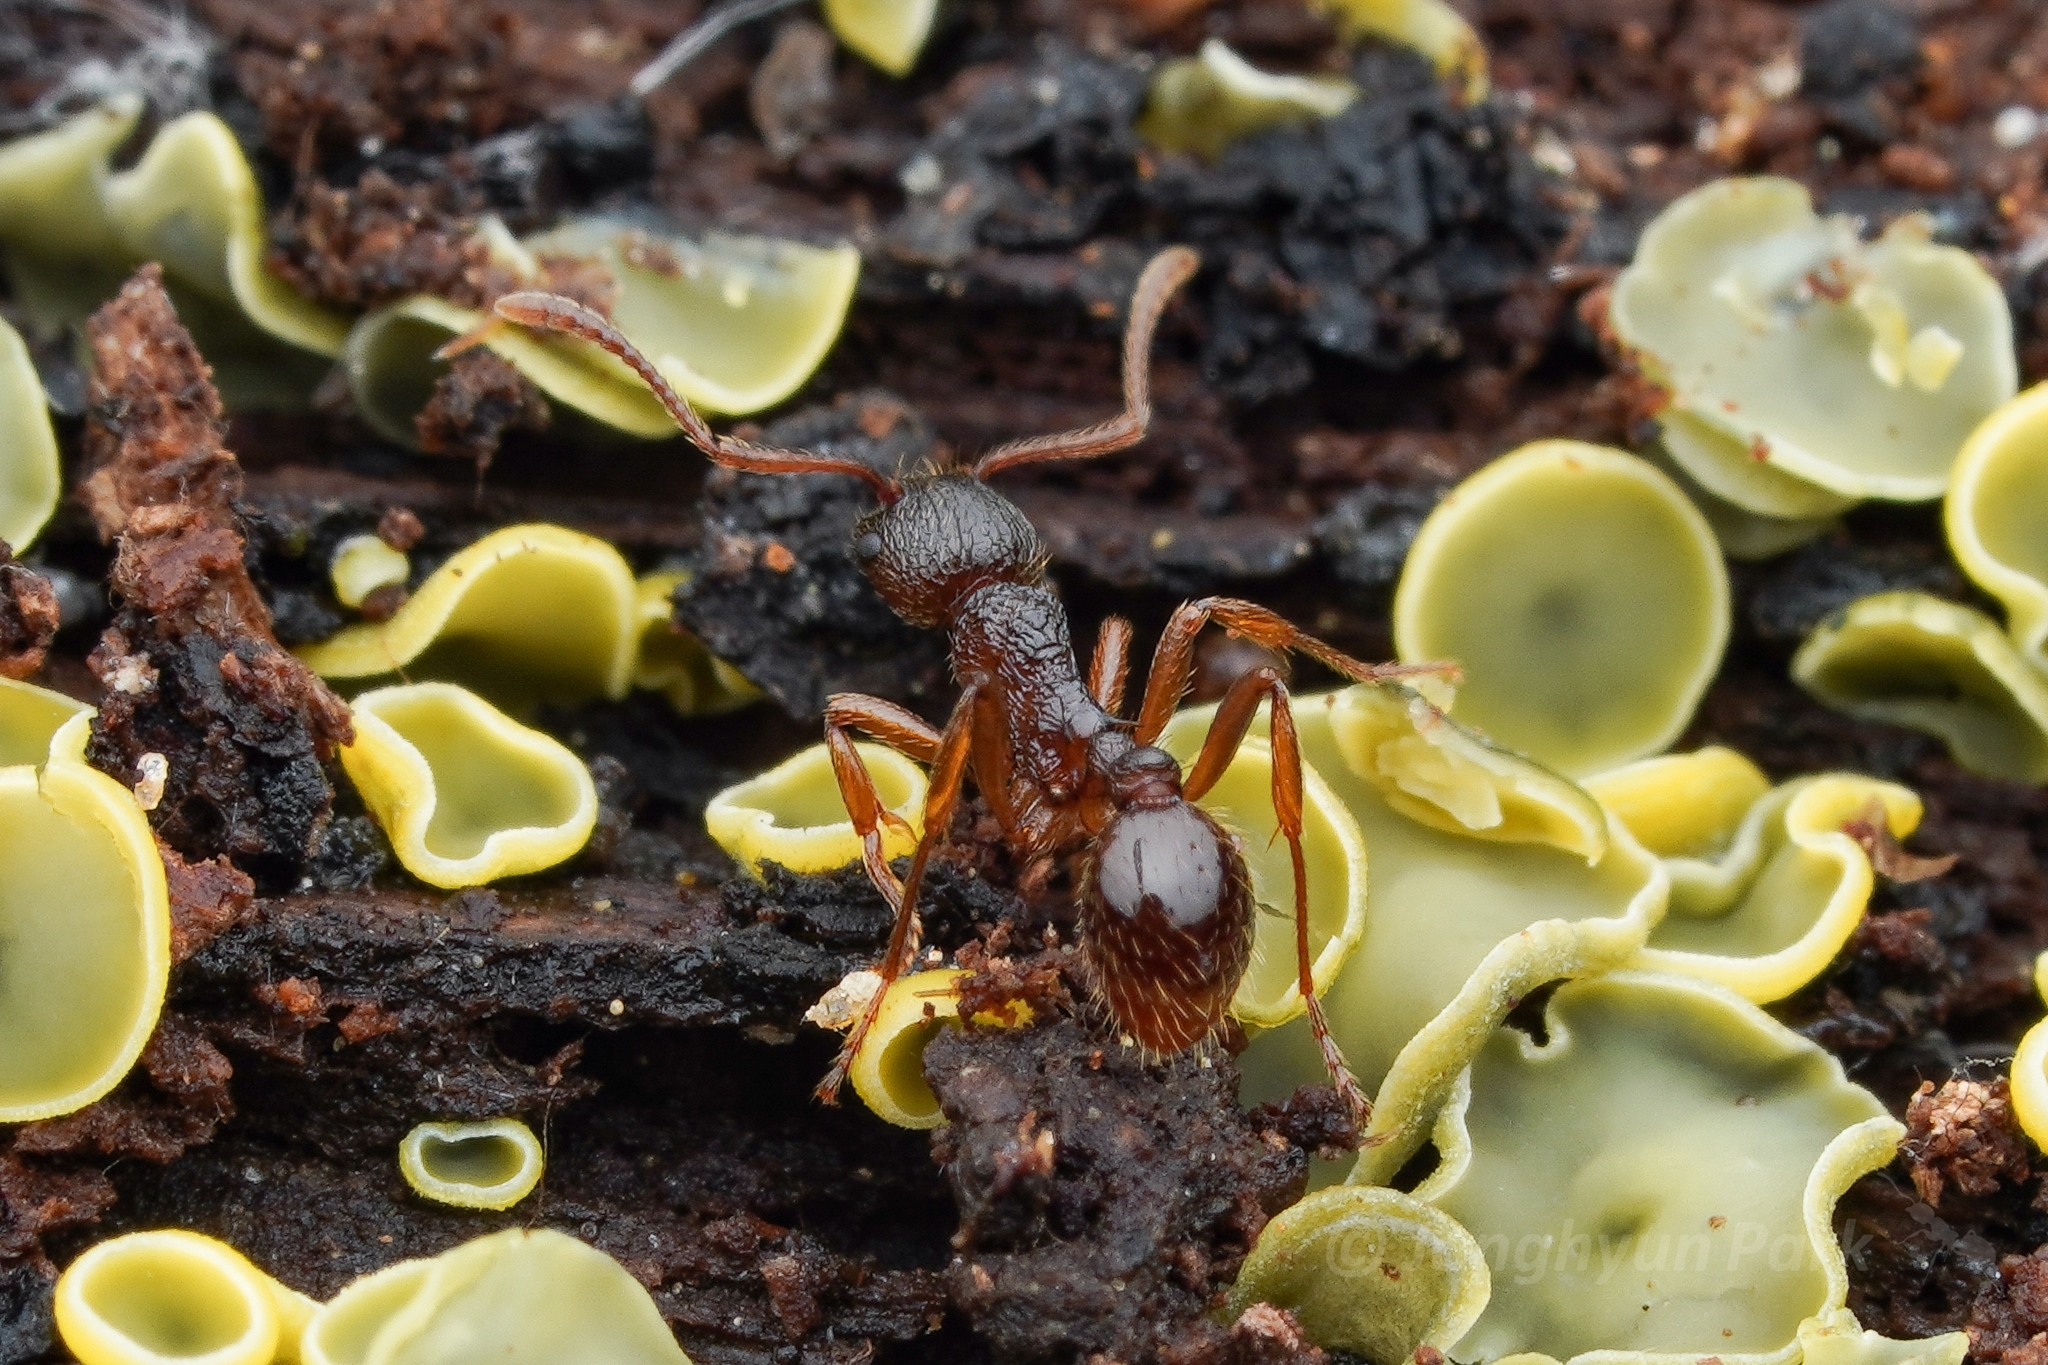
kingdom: Animalia
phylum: Arthropoda
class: Insecta
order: Hymenoptera
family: Formicidae
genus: Myrmica
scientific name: Myrmica kotokui
